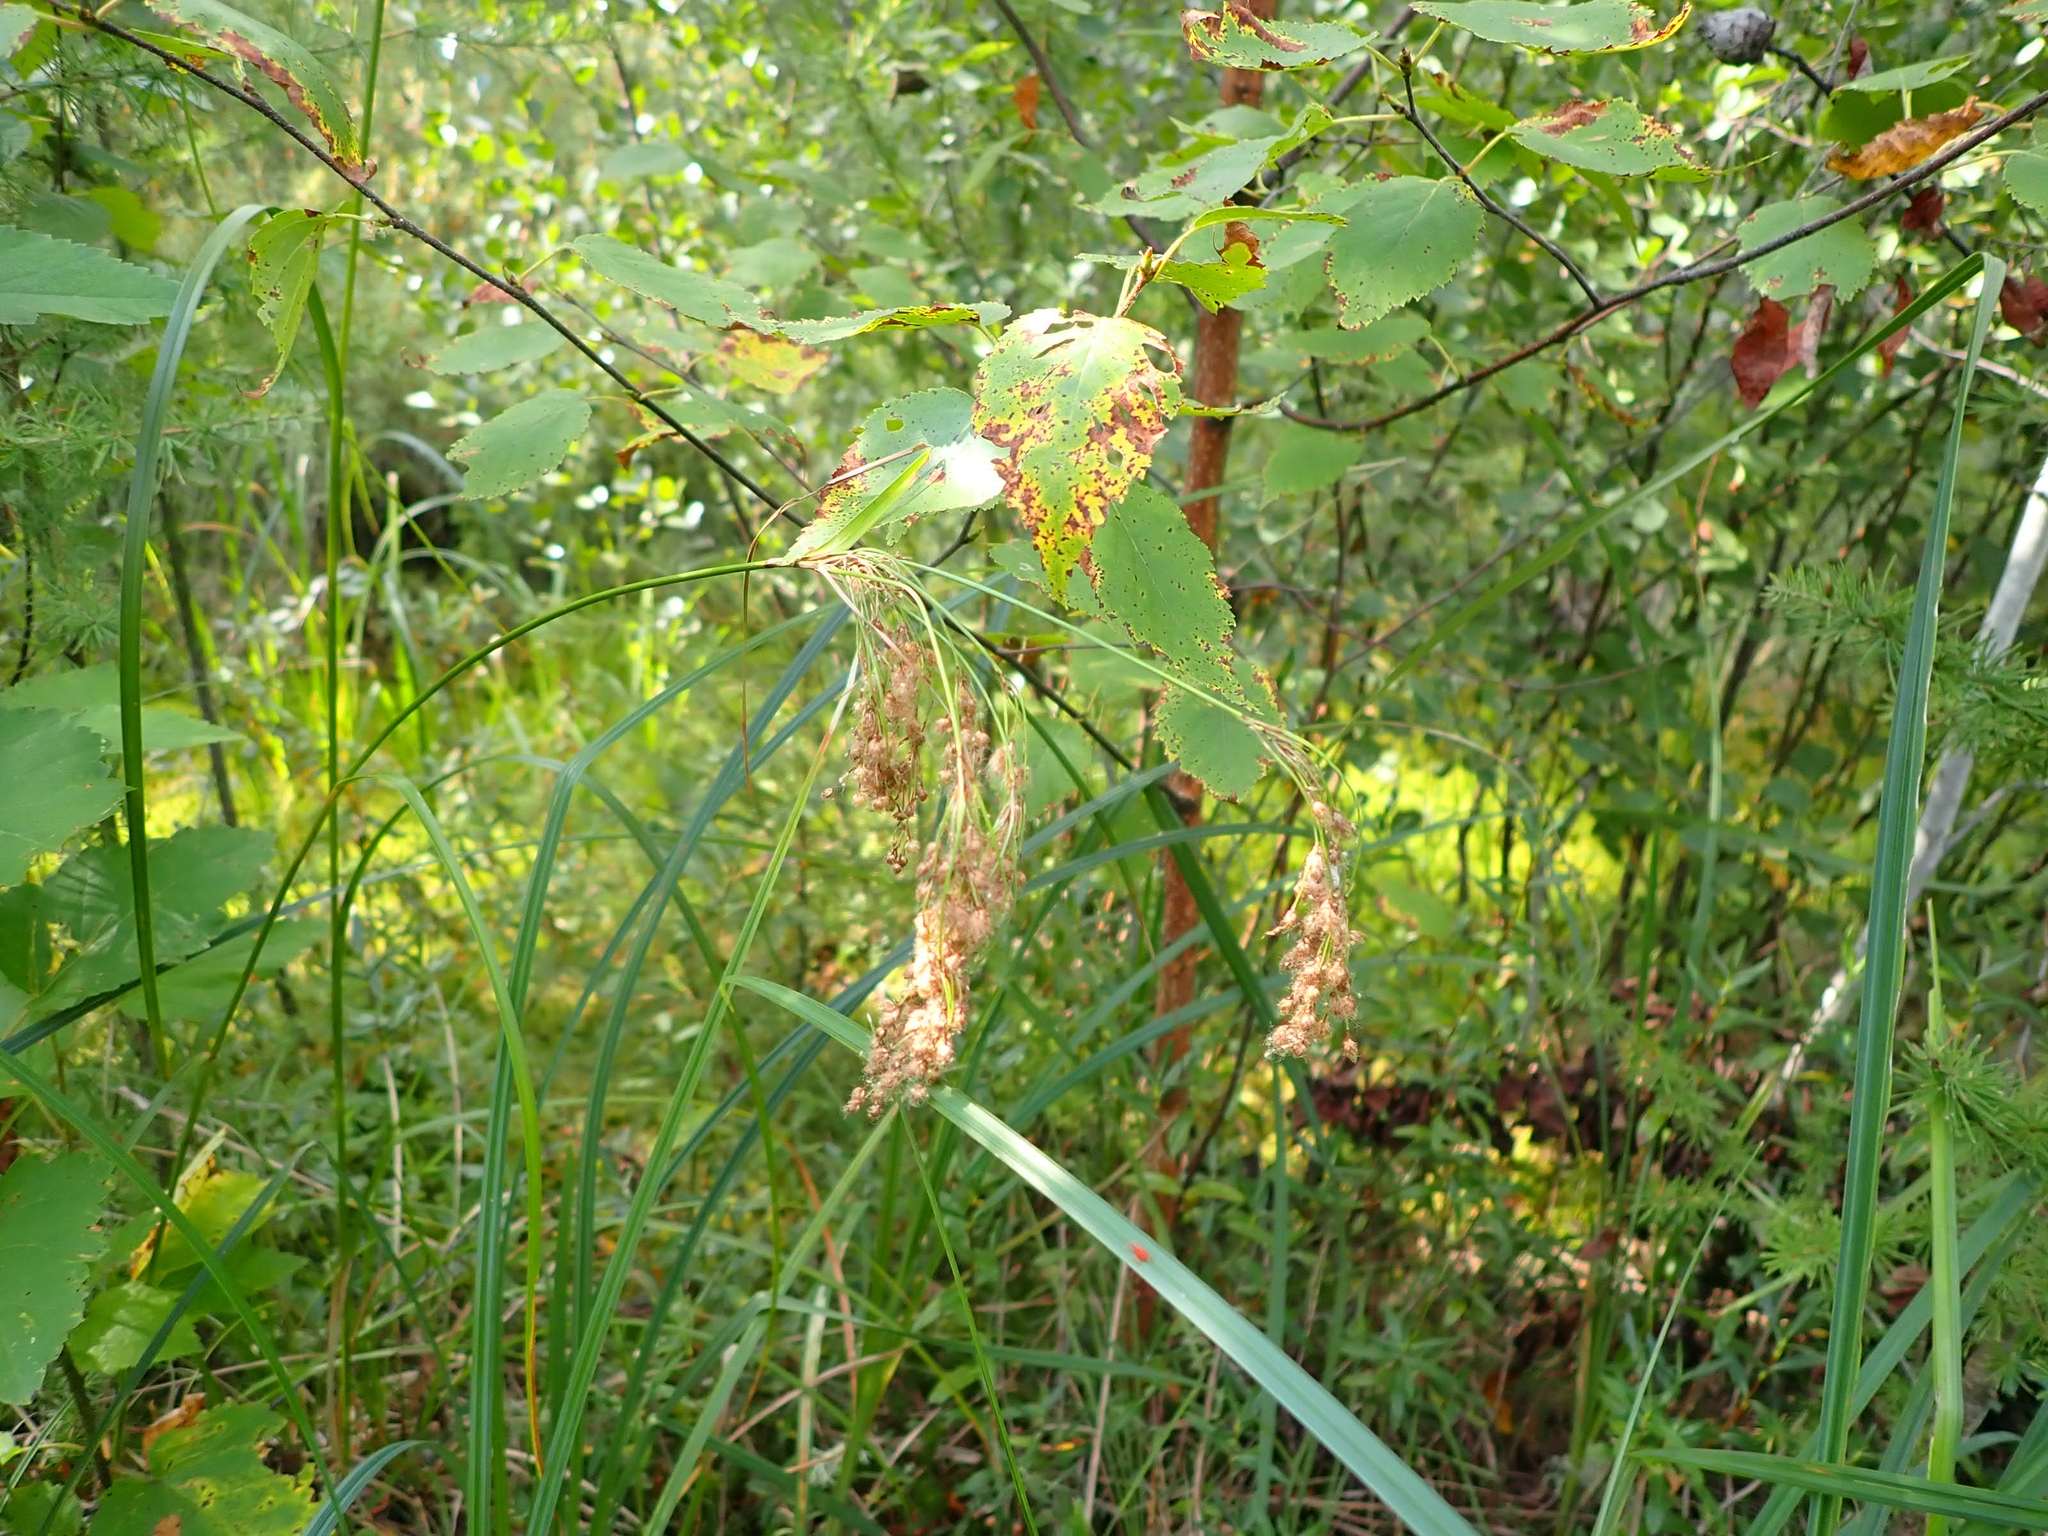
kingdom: Plantae
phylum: Tracheophyta
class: Liliopsida
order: Poales
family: Cyperaceae
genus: Scirpus
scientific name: Scirpus cyperinus
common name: Black-sheathed bulrush
